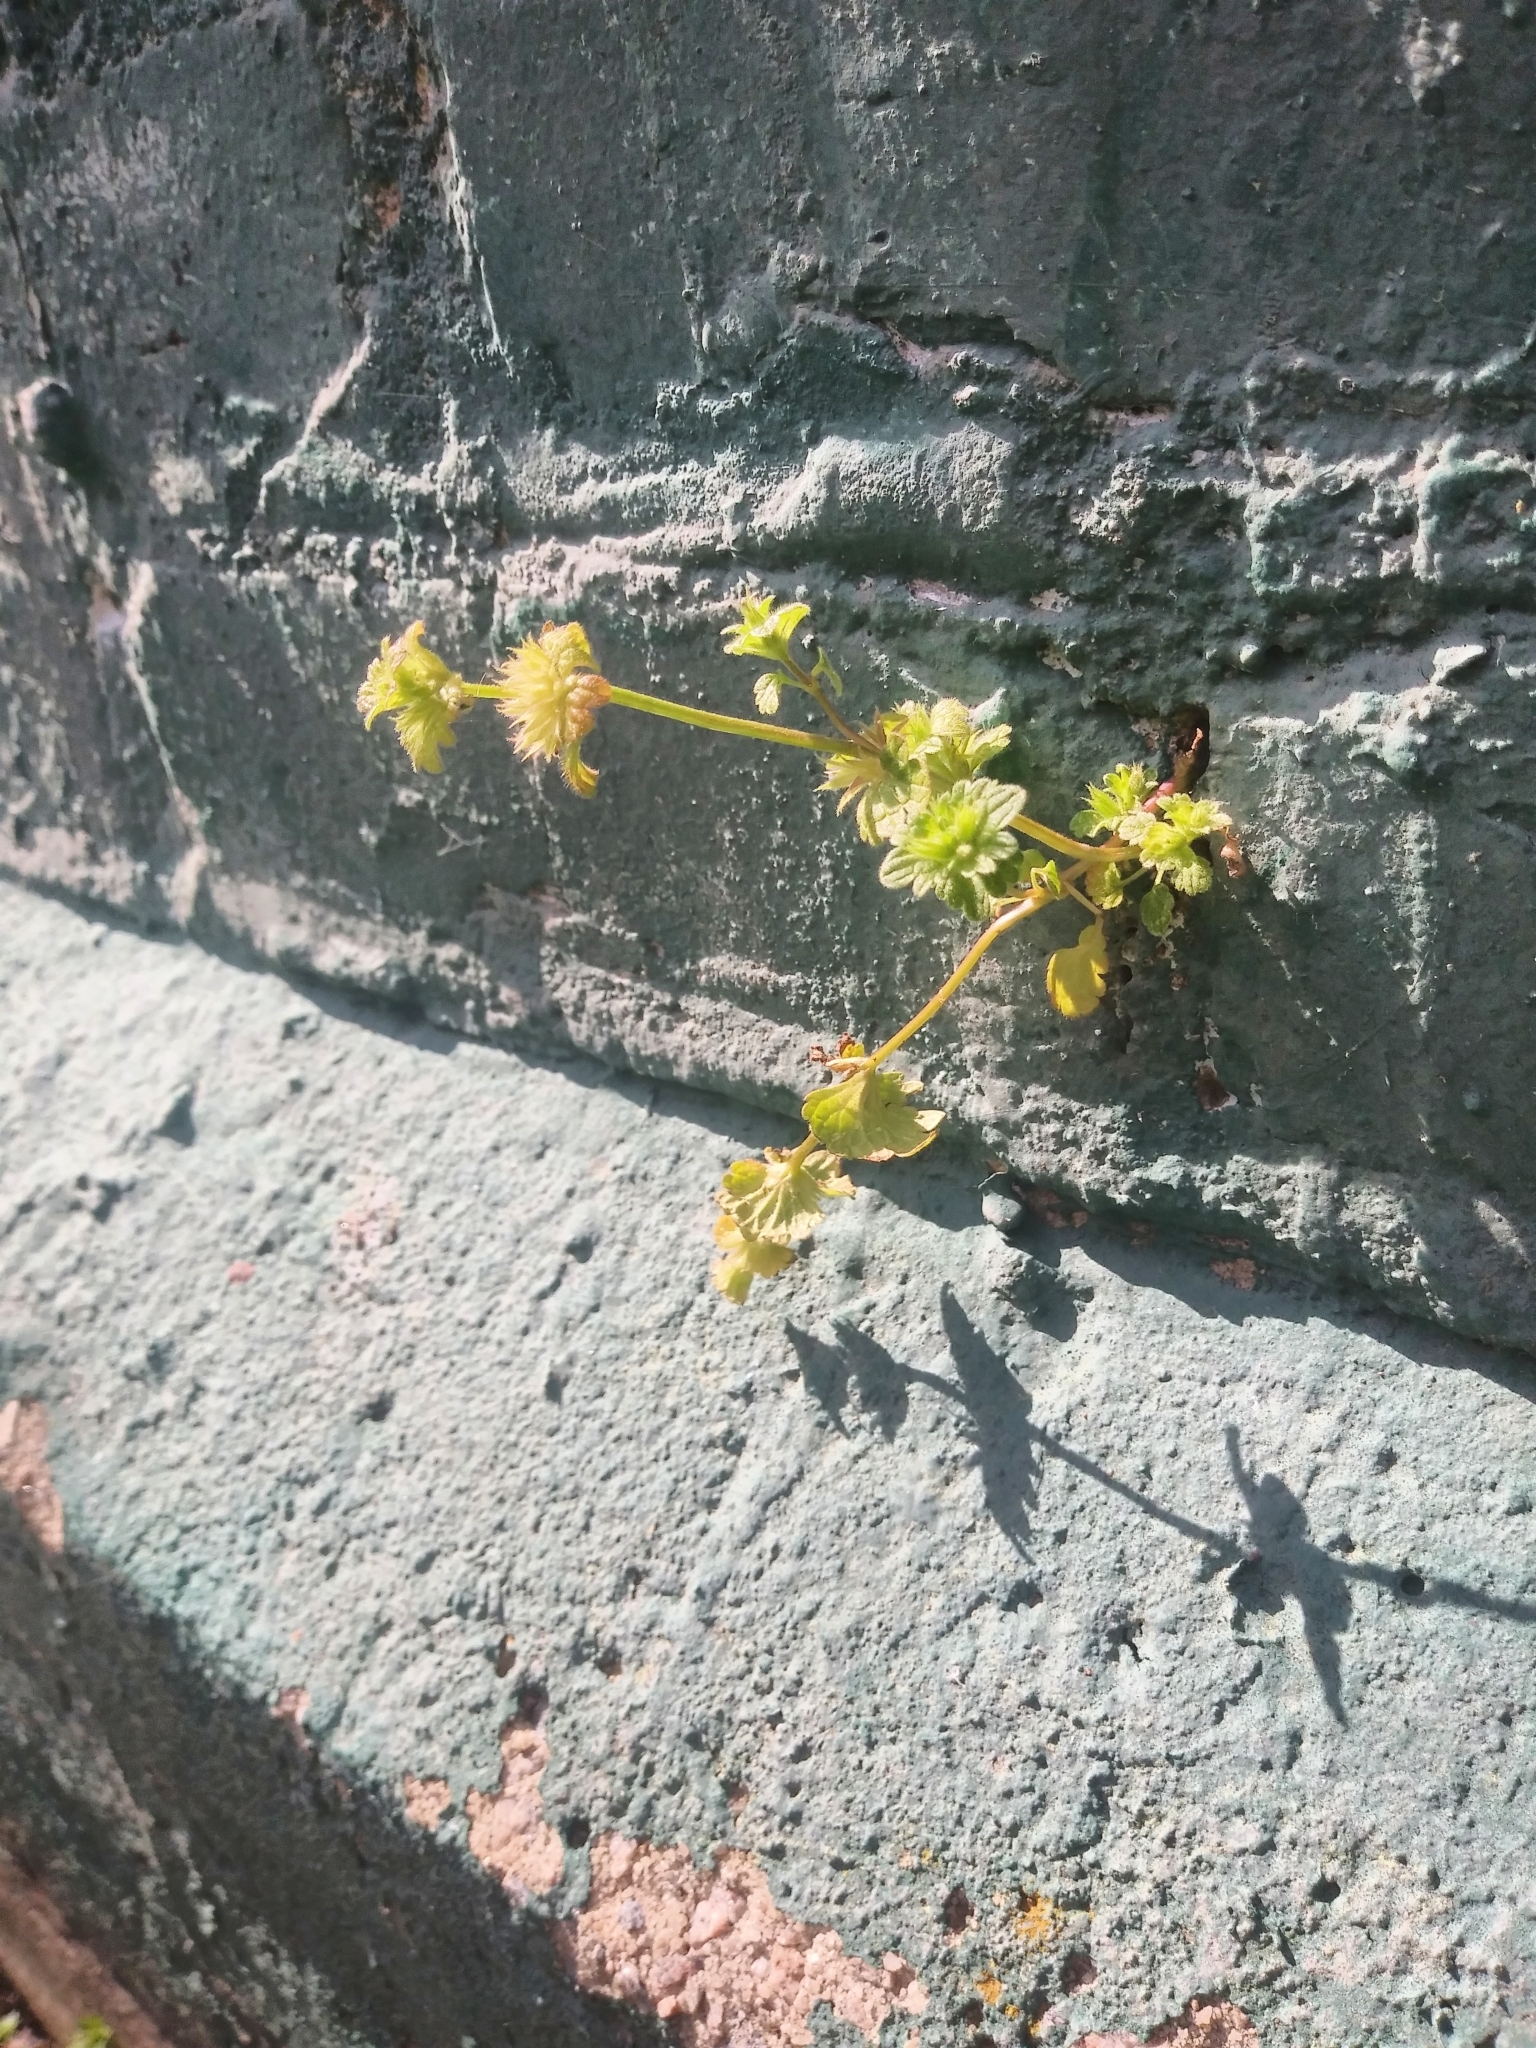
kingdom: Plantae
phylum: Tracheophyta
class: Magnoliopsida
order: Lamiales
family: Lamiaceae
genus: Lamium
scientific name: Lamium amplexicaule
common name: Henbit dead-nettle
